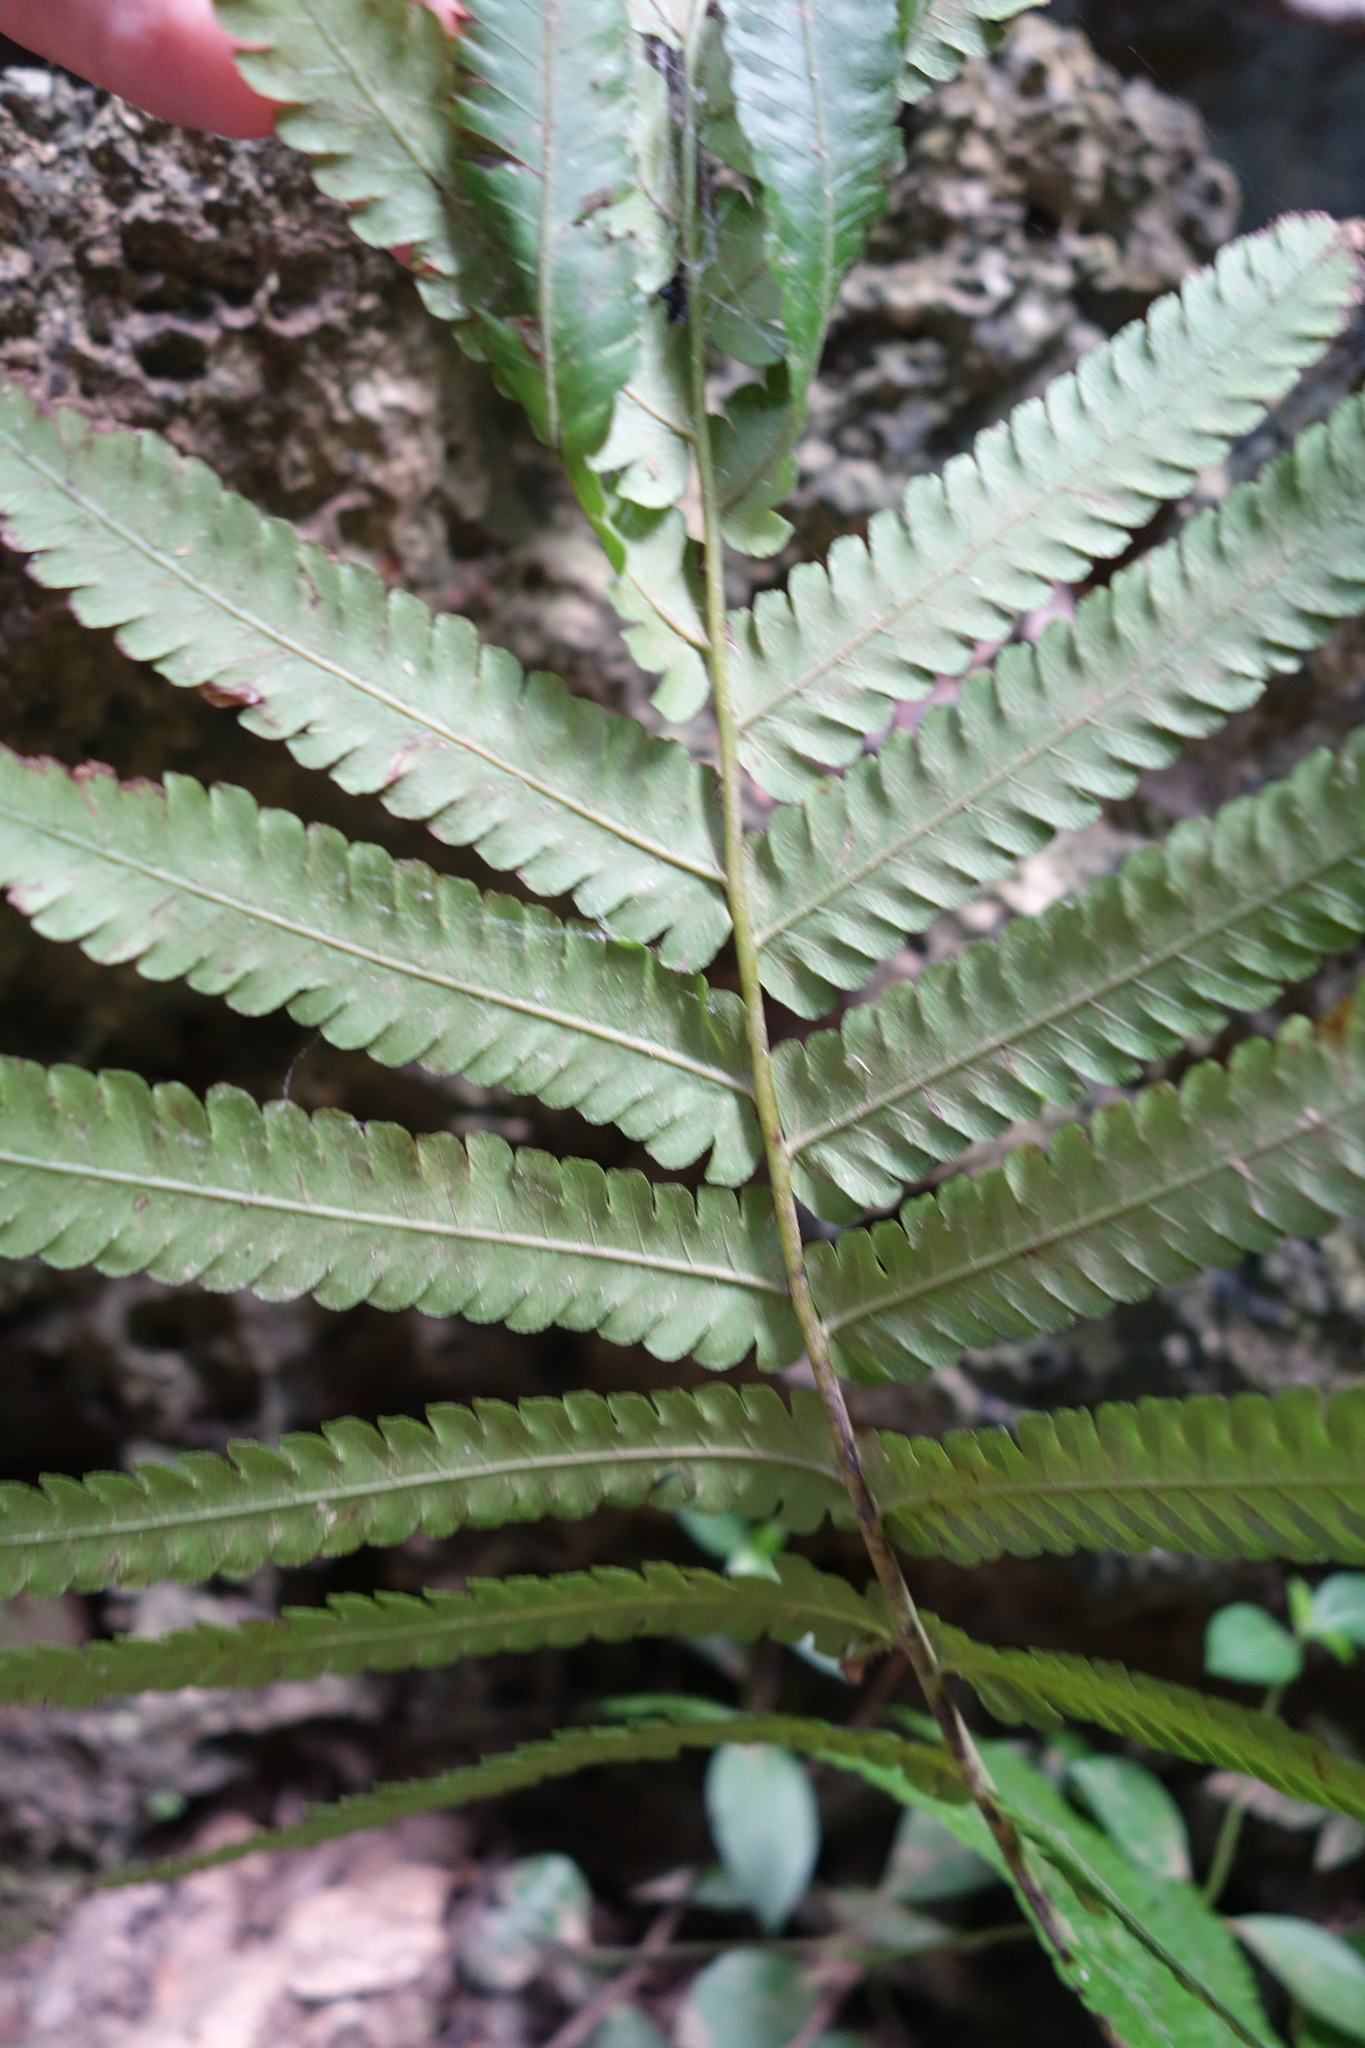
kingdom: Plantae
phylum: Tracheophyta
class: Polypodiopsida
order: Polypodiales
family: Thelypteridaceae
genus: Christella
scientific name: Christella acuminata
